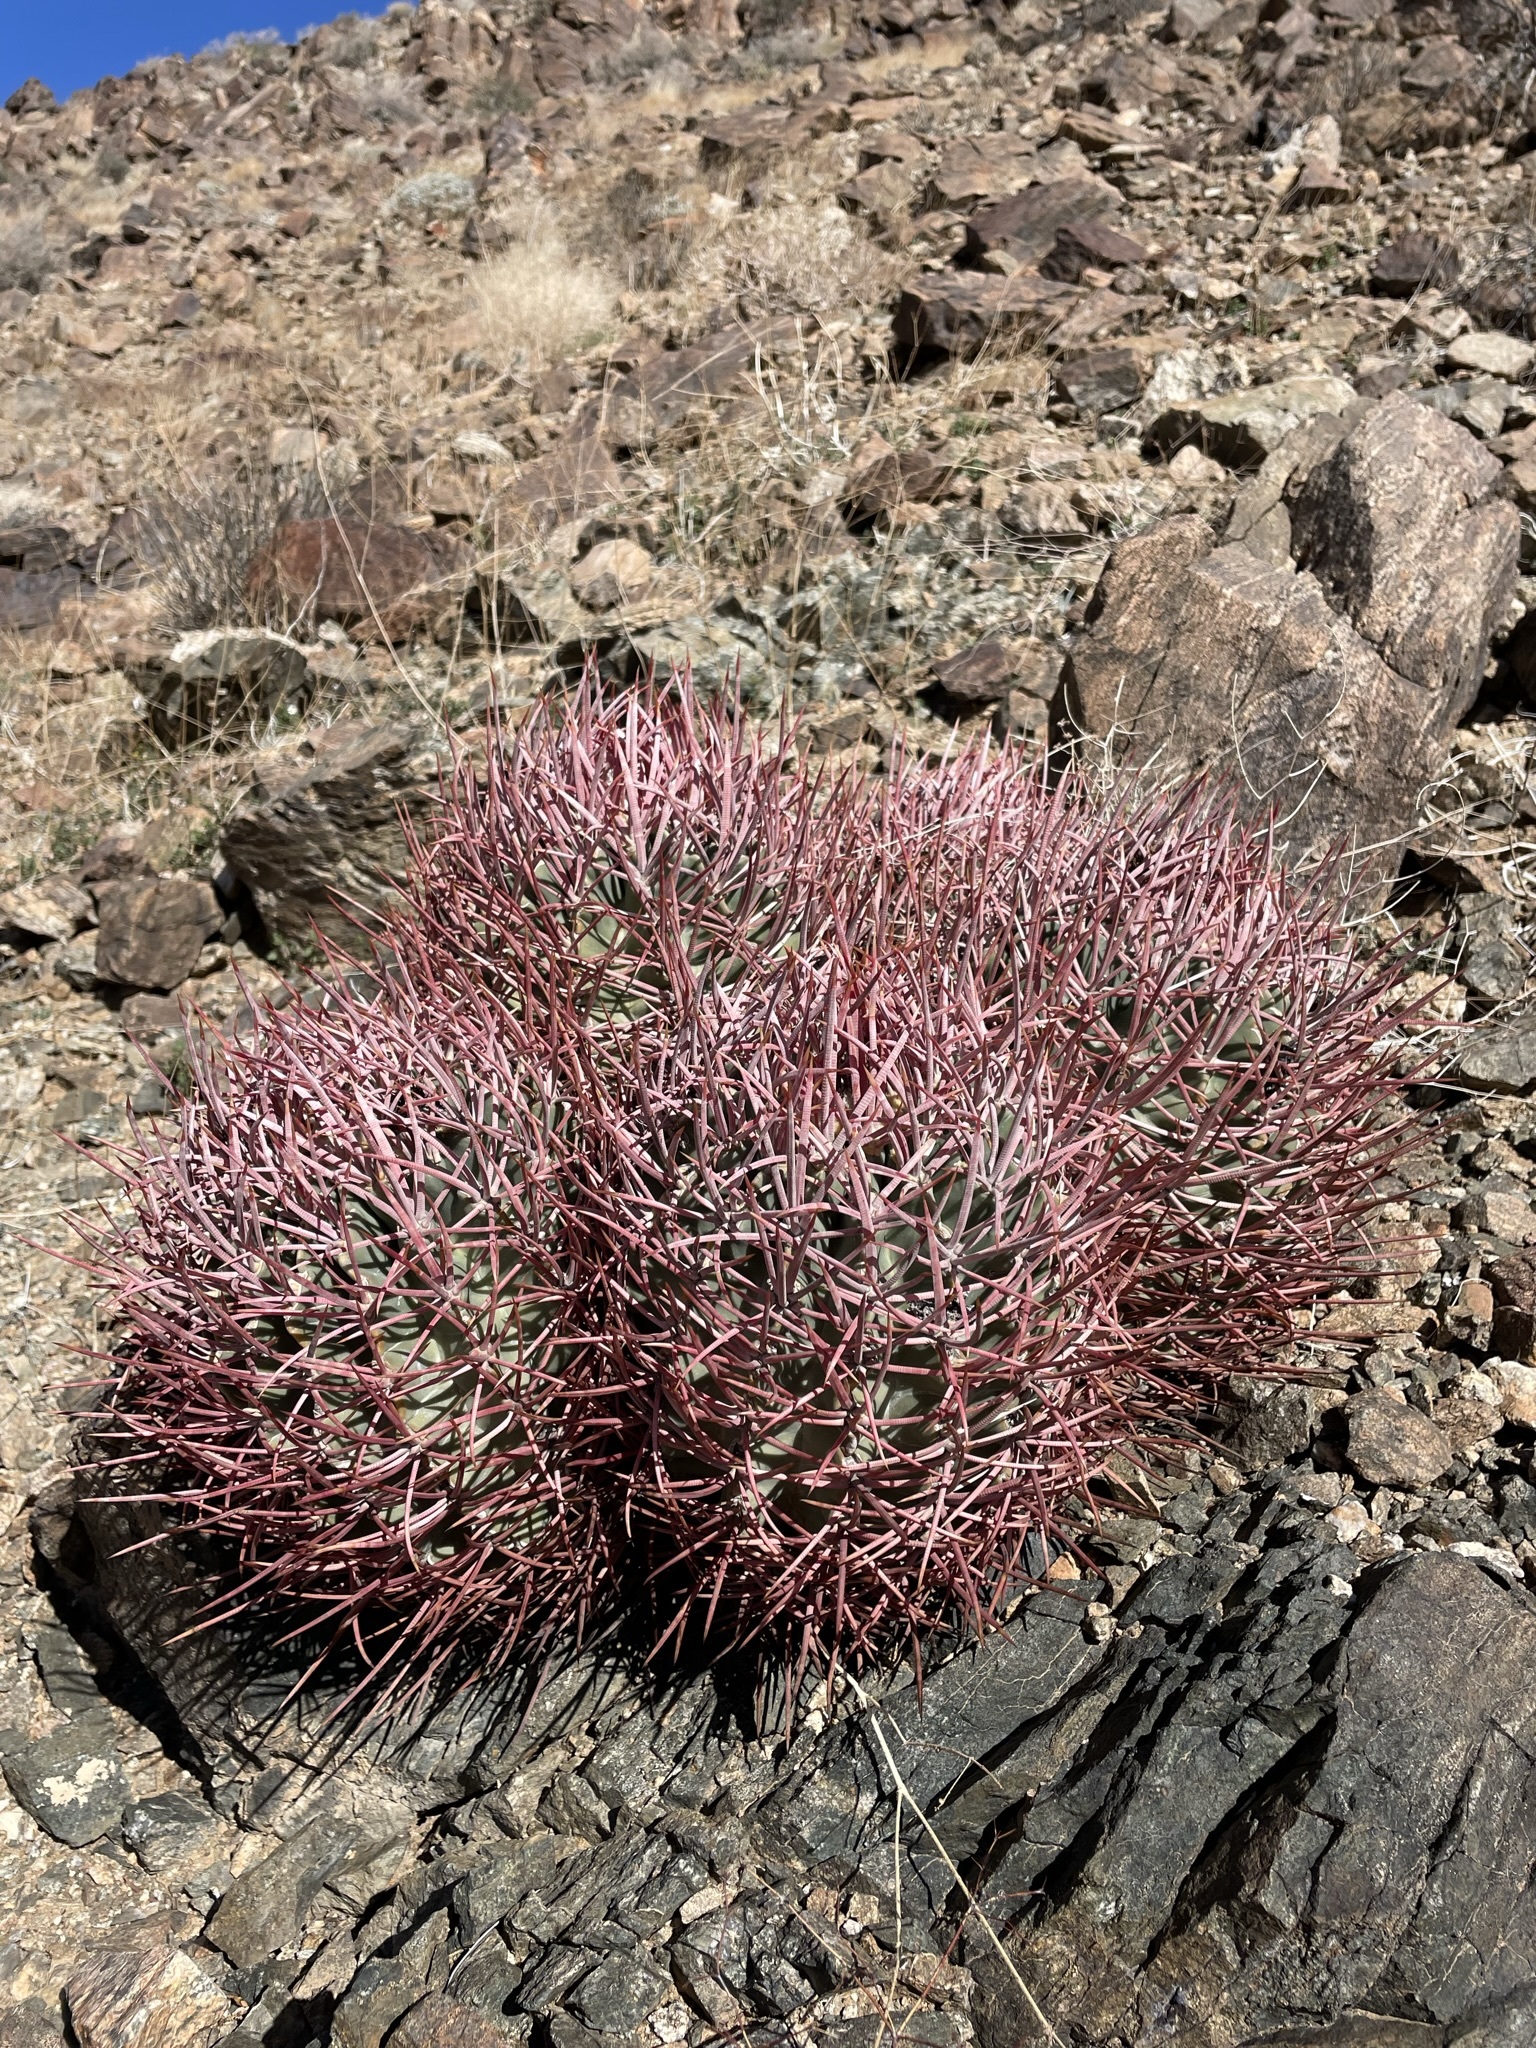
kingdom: Plantae
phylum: Tracheophyta
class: Magnoliopsida
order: Caryophyllales
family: Cactaceae
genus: Echinocactus
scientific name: Echinocactus polycephalus
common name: Cottontop cactus
